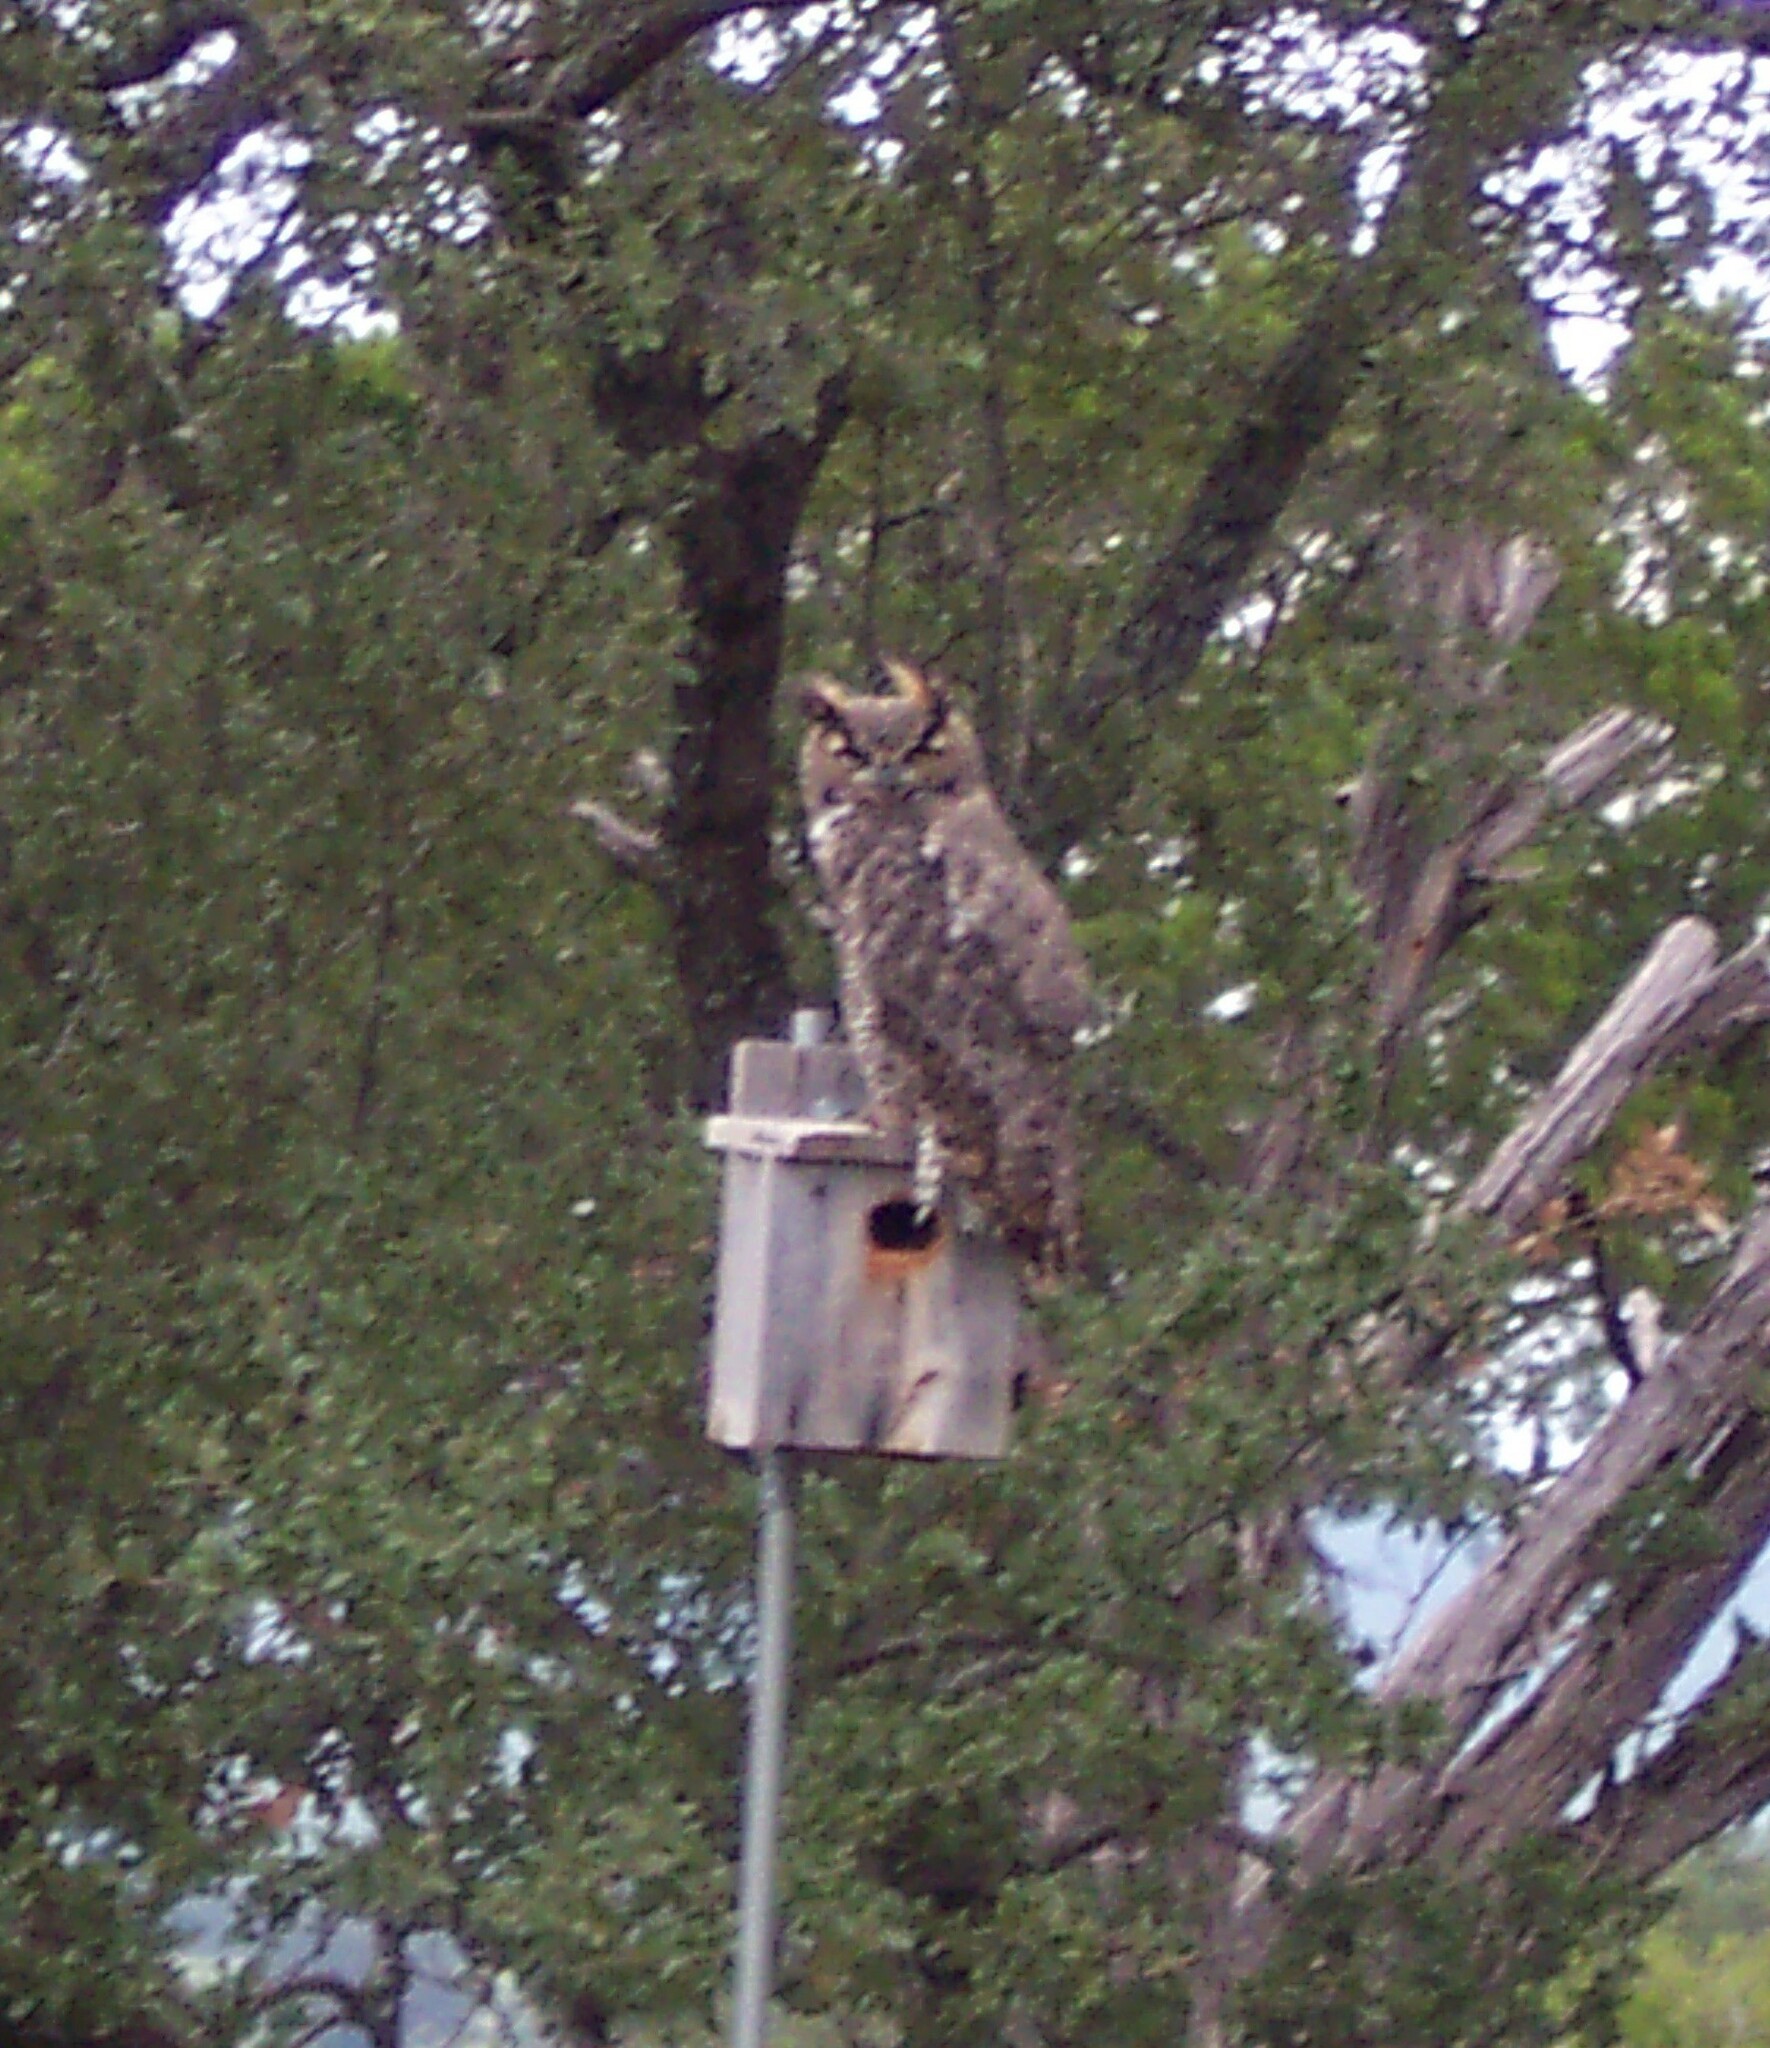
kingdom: Animalia
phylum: Chordata
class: Aves
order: Strigiformes
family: Strigidae
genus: Bubo
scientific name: Bubo virginianus
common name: Great horned owl
